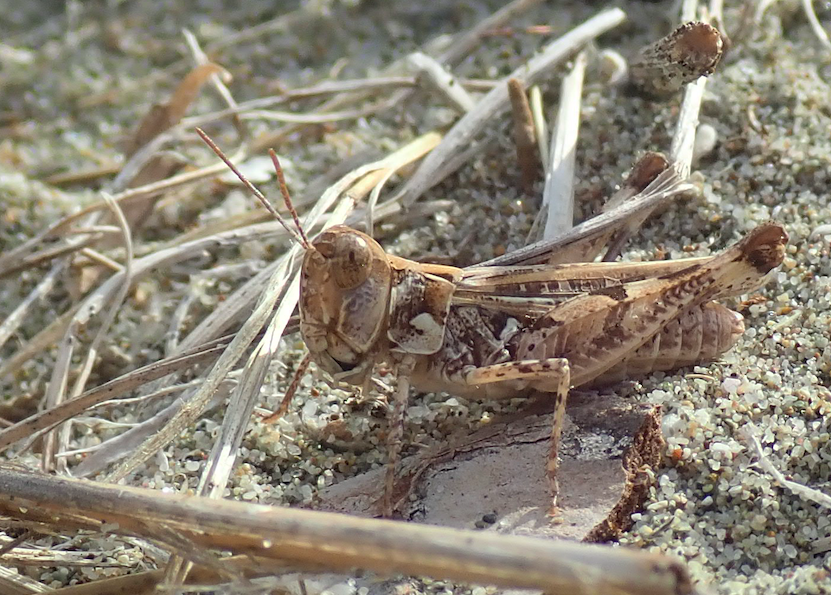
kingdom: Animalia
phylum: Arthropoda
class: Insecta
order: Orthoptera
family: Acrididae
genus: Dociostaurus
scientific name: Dociostaurus genei
